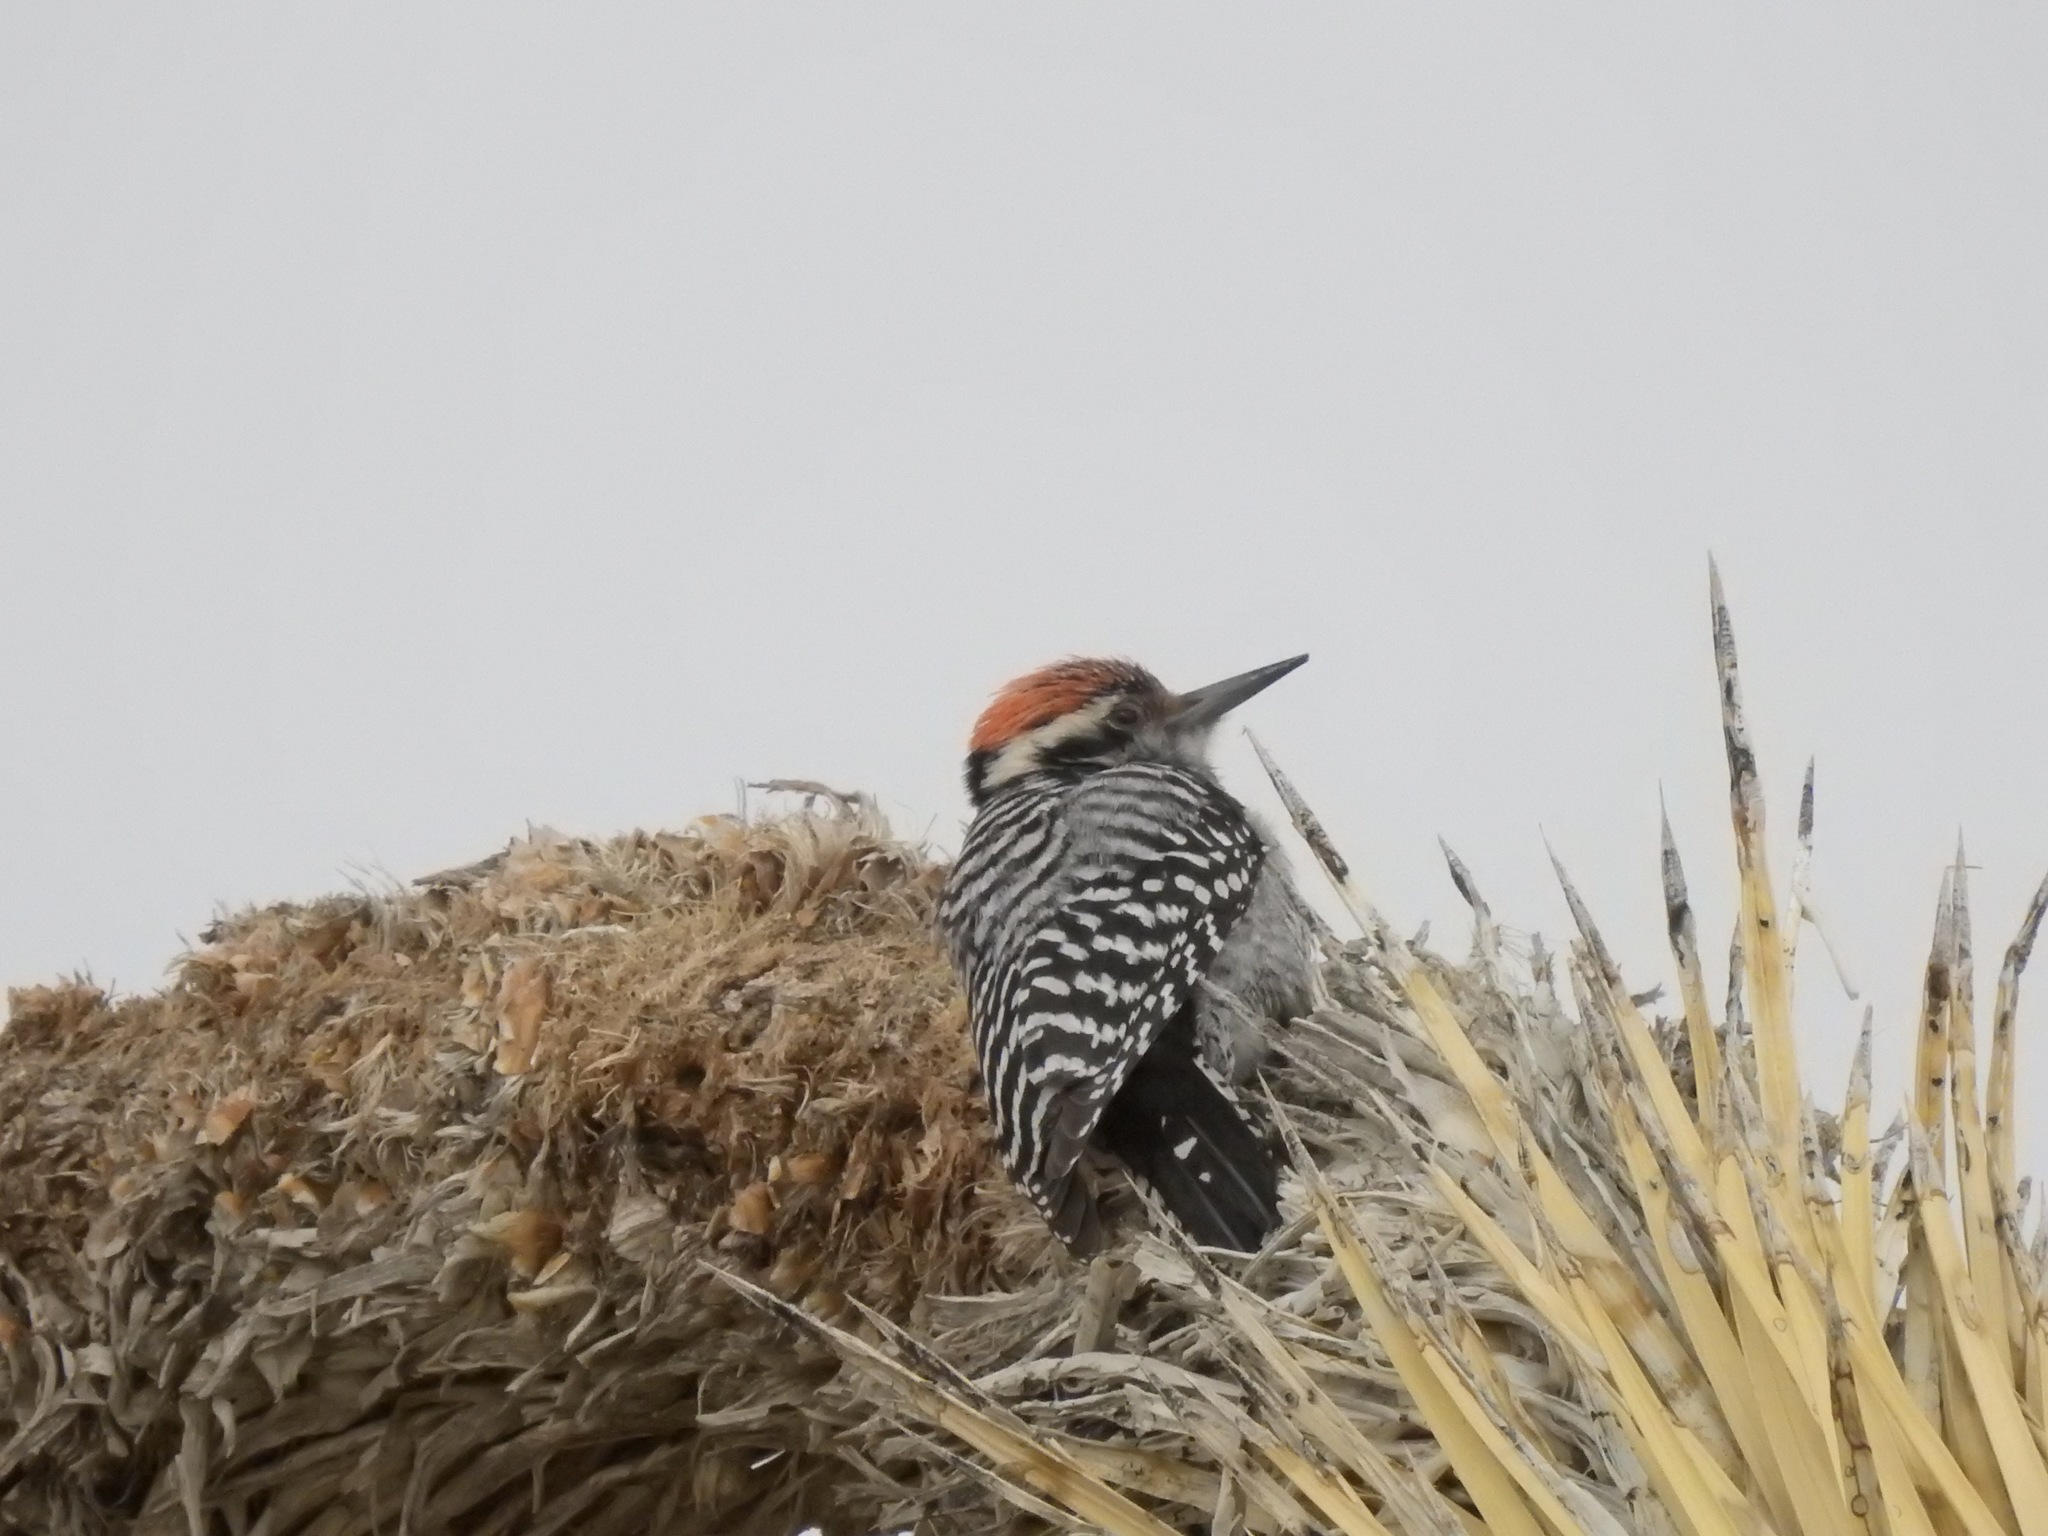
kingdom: Animalia
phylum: Chordata
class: Aves
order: Piciformes
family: Picidae
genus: Dryobates
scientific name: Dryobates scalaris
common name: Ladder-backed woodpecker
